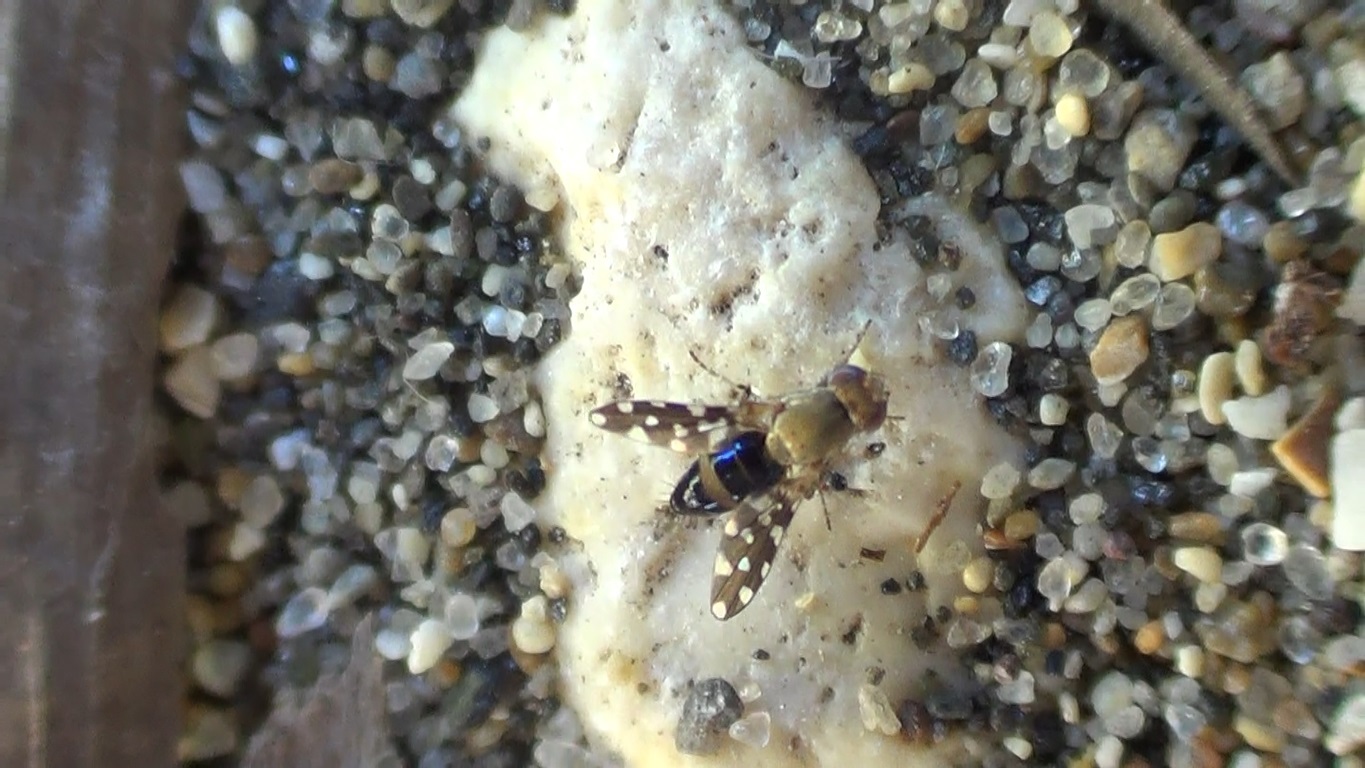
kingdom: Animalia
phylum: Arthropoda
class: Insecta
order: Diptera
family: Ephydridae
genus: Actocetor
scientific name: Actocetor indicus
